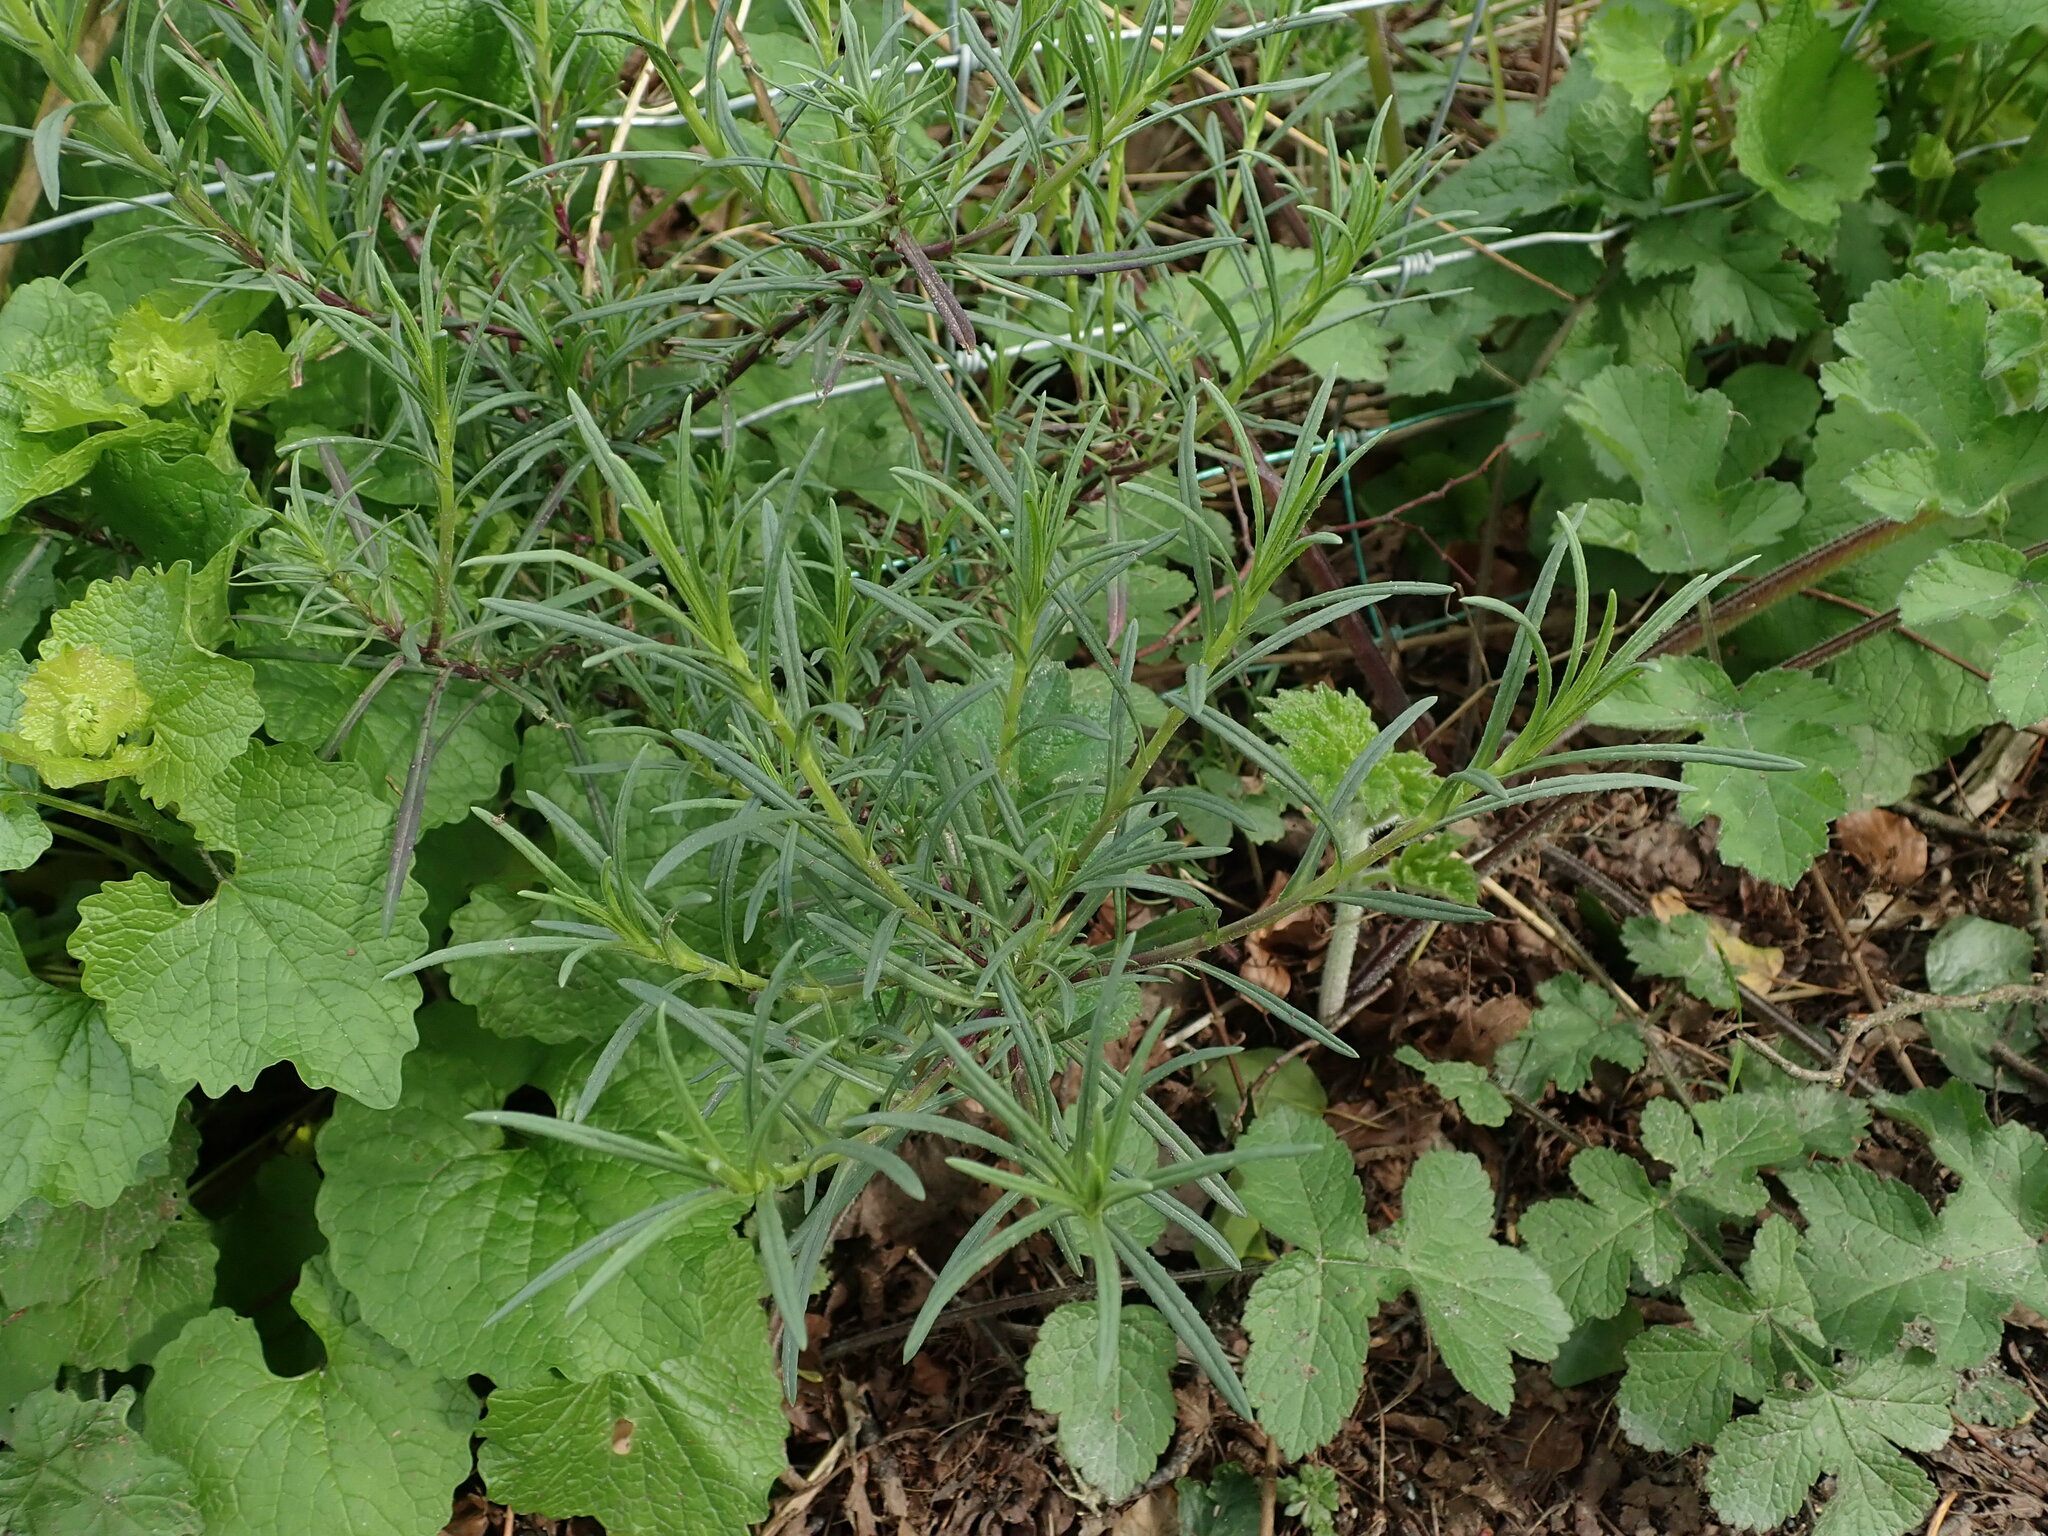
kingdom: Plantae
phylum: Tracheophyta
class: Magnoliopsida
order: Asterales
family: Asteraceae
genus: Senecio
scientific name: Senecio inaequidens
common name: Narrow-leaved ragwort
